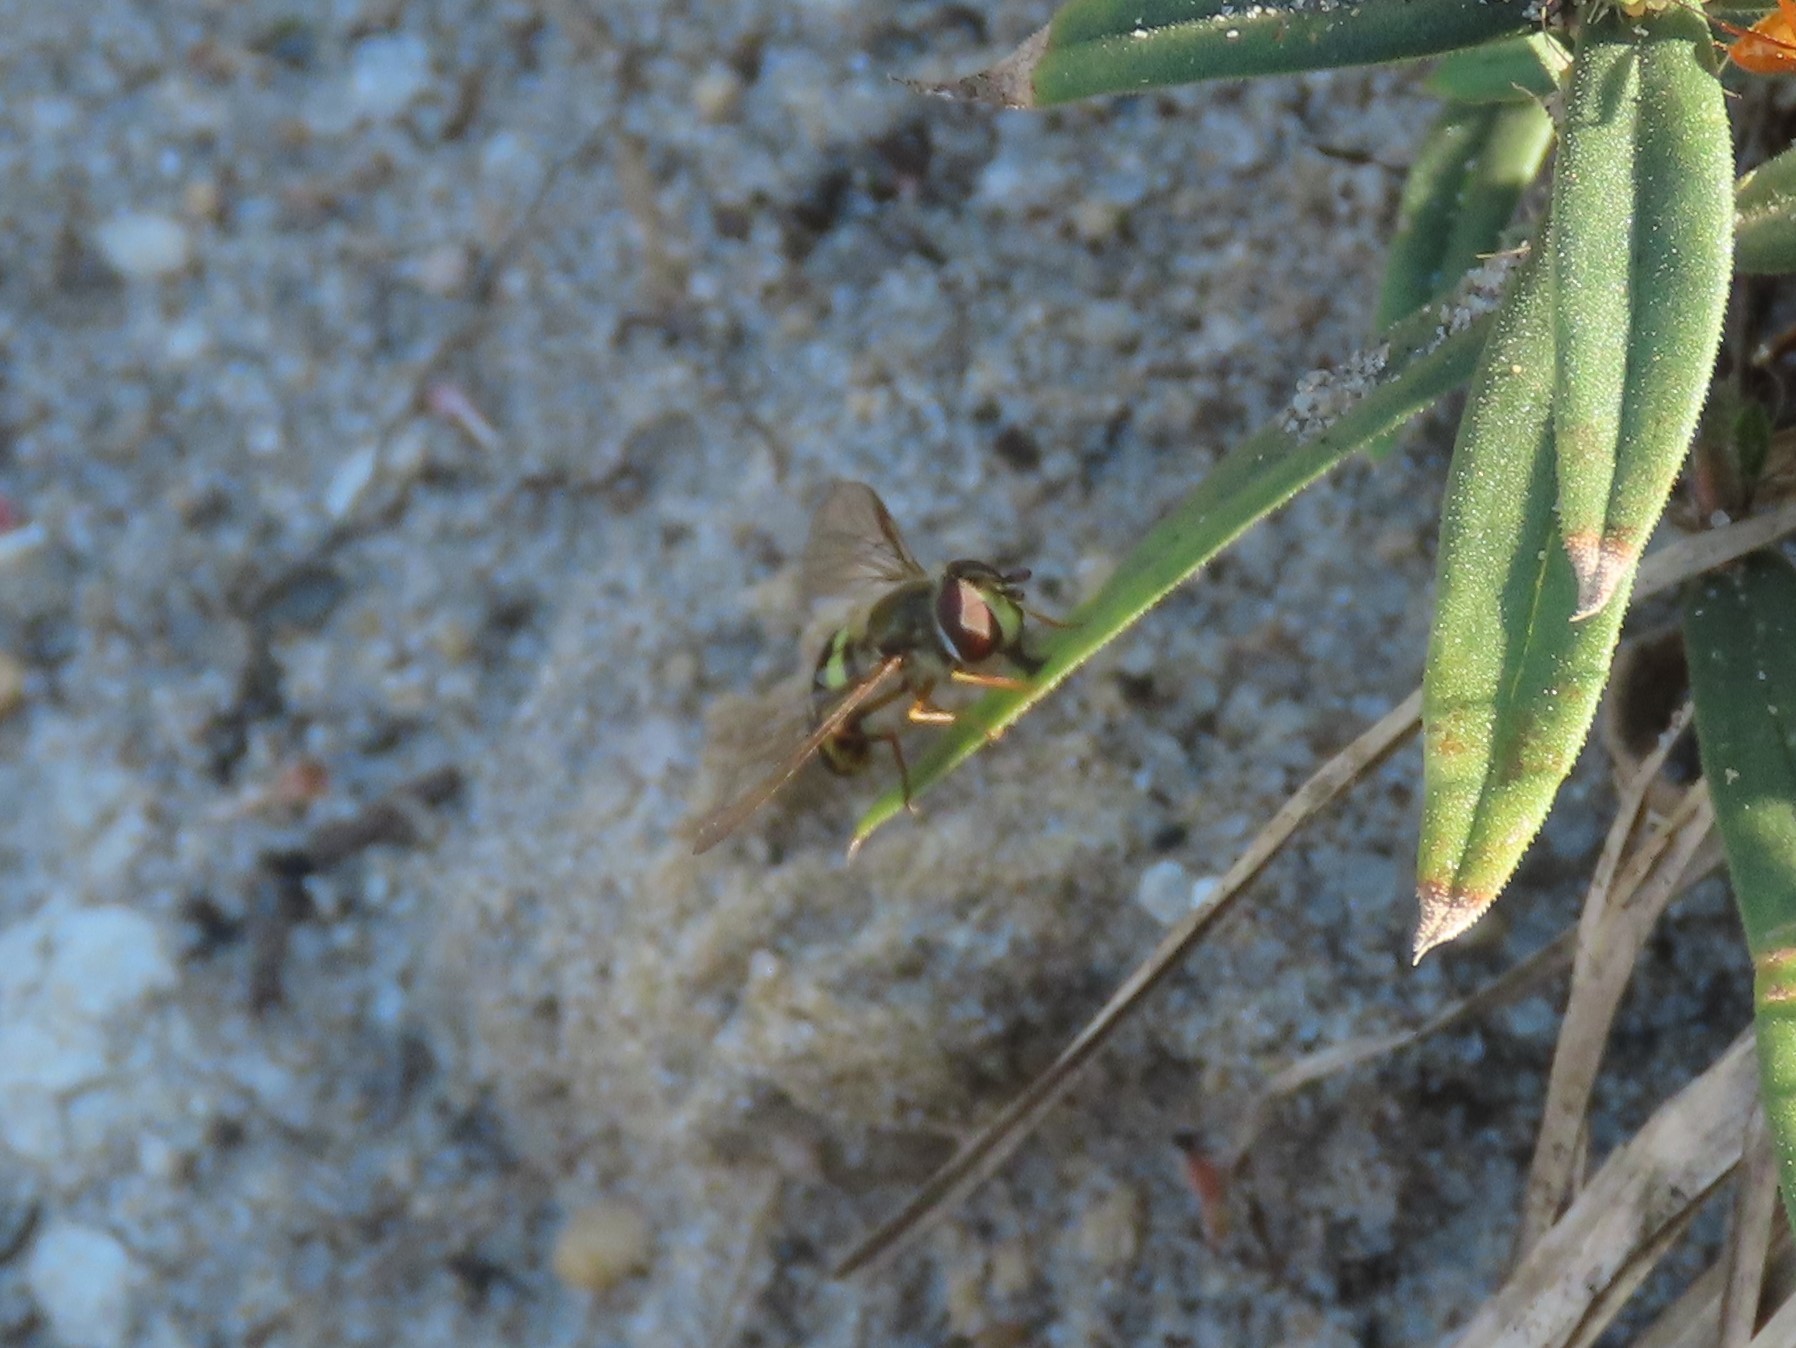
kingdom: Animalia
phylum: Arthropoda
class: Insecta
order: Diptera
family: Syrphidae
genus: Eupeodes
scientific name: Eupeodes
